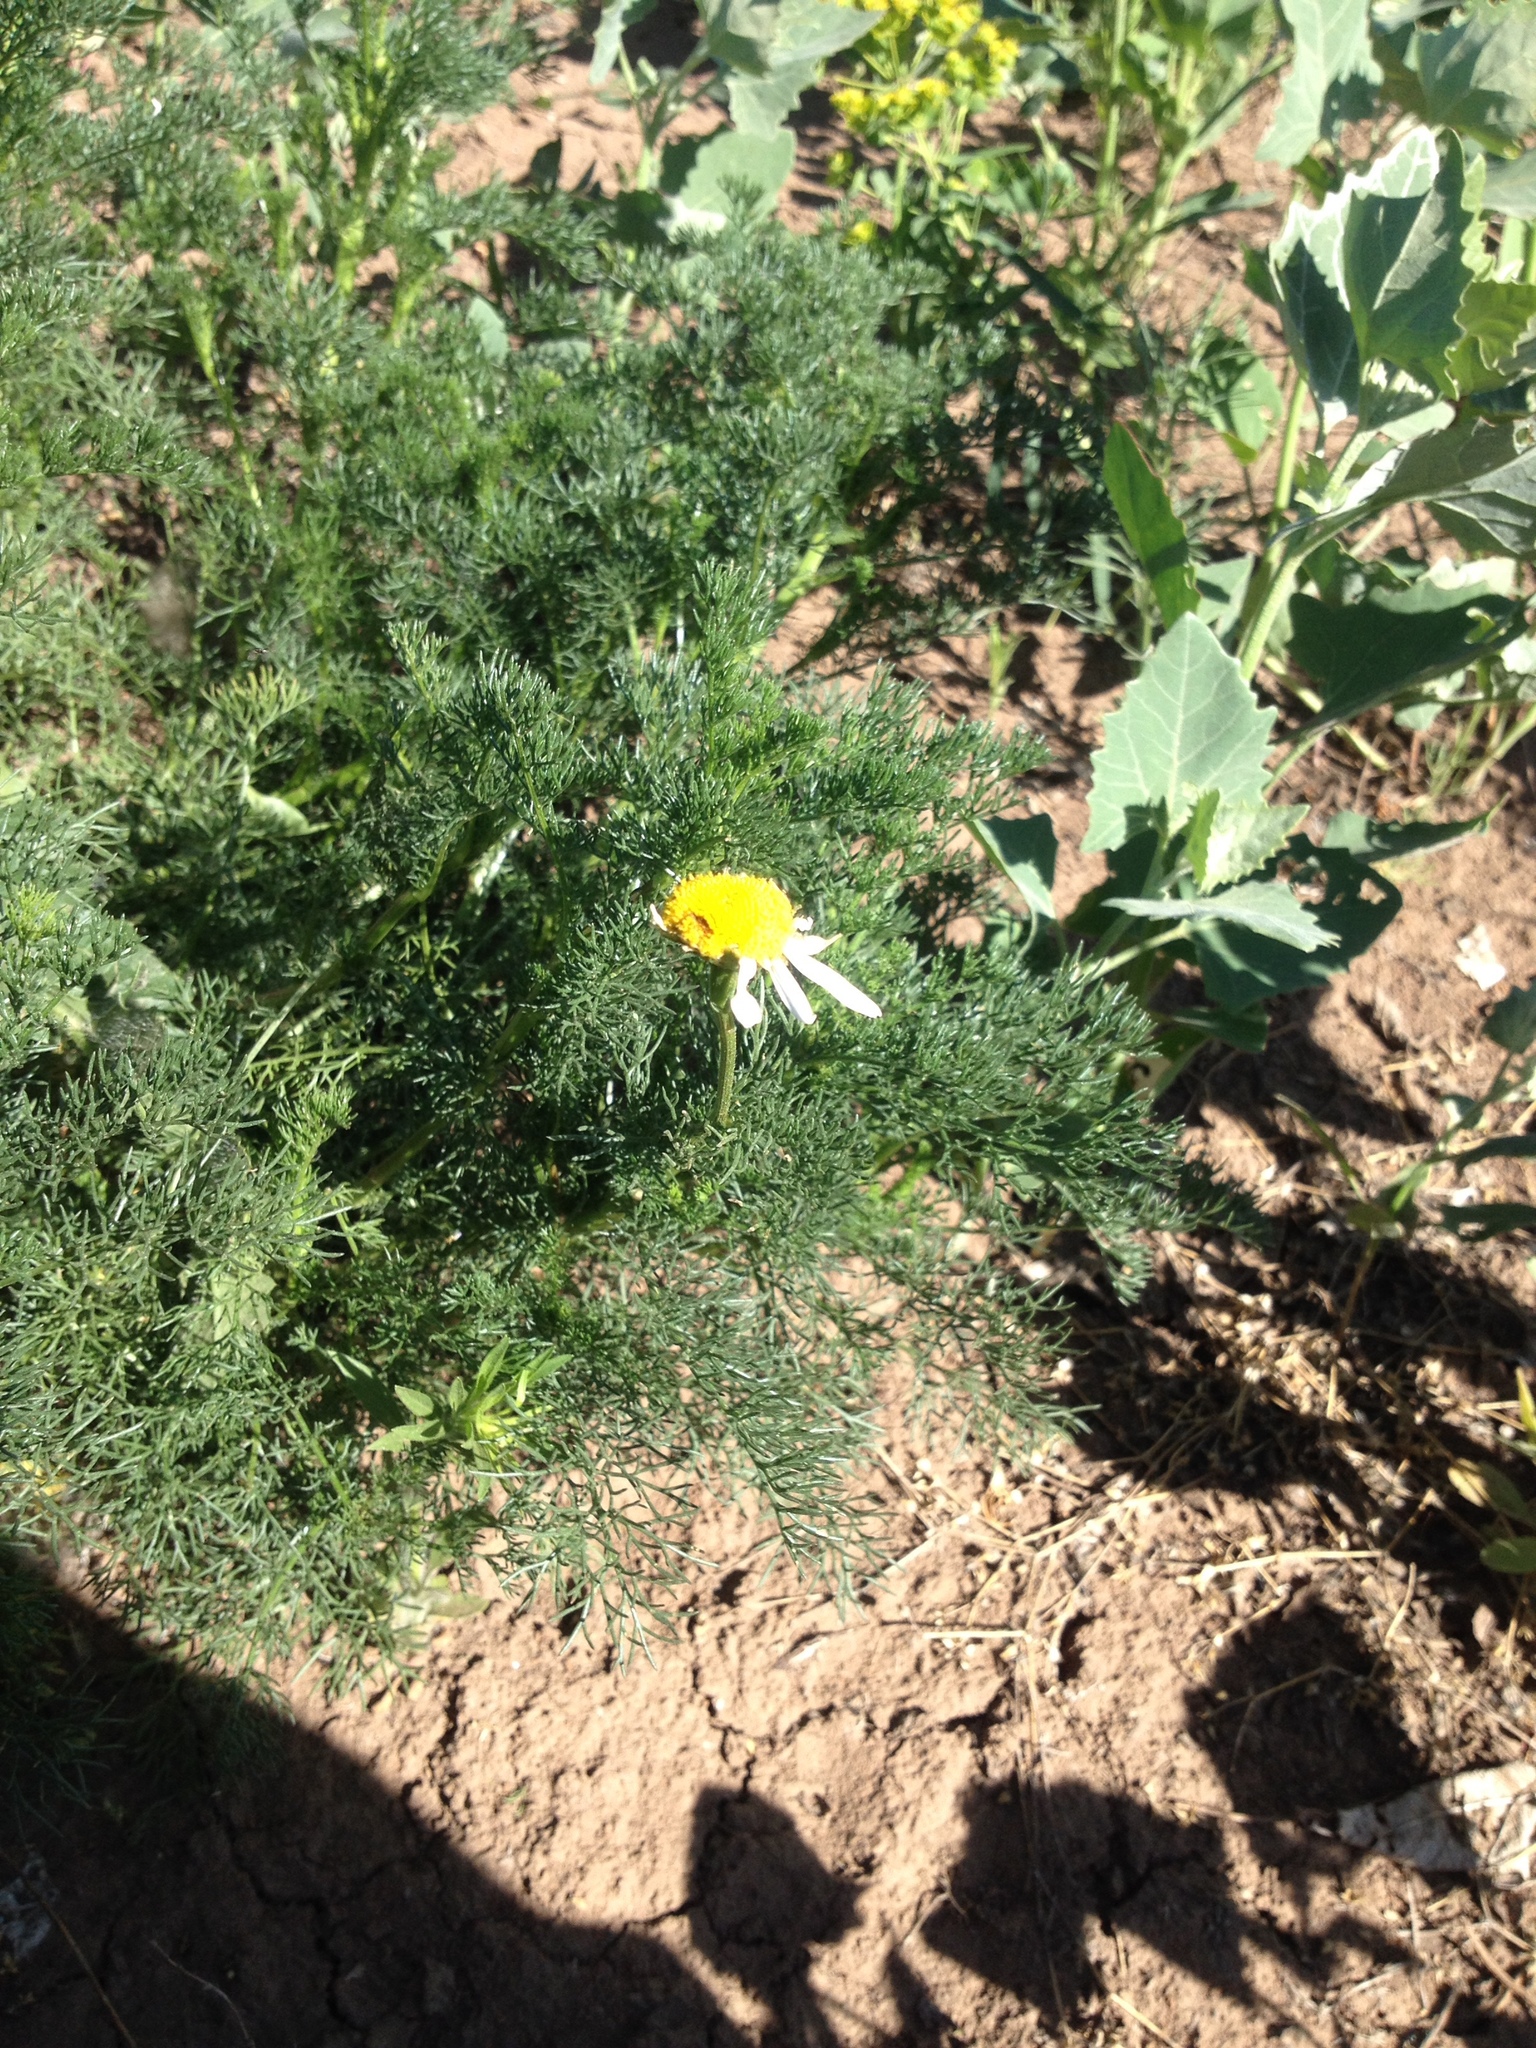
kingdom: Plantae
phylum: Tracheophyta
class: Magnoliopsida
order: Asterales
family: Asteraceae
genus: Tripleurospermum
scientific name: Tripleurospermum inodorum
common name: Scentless mayweed
